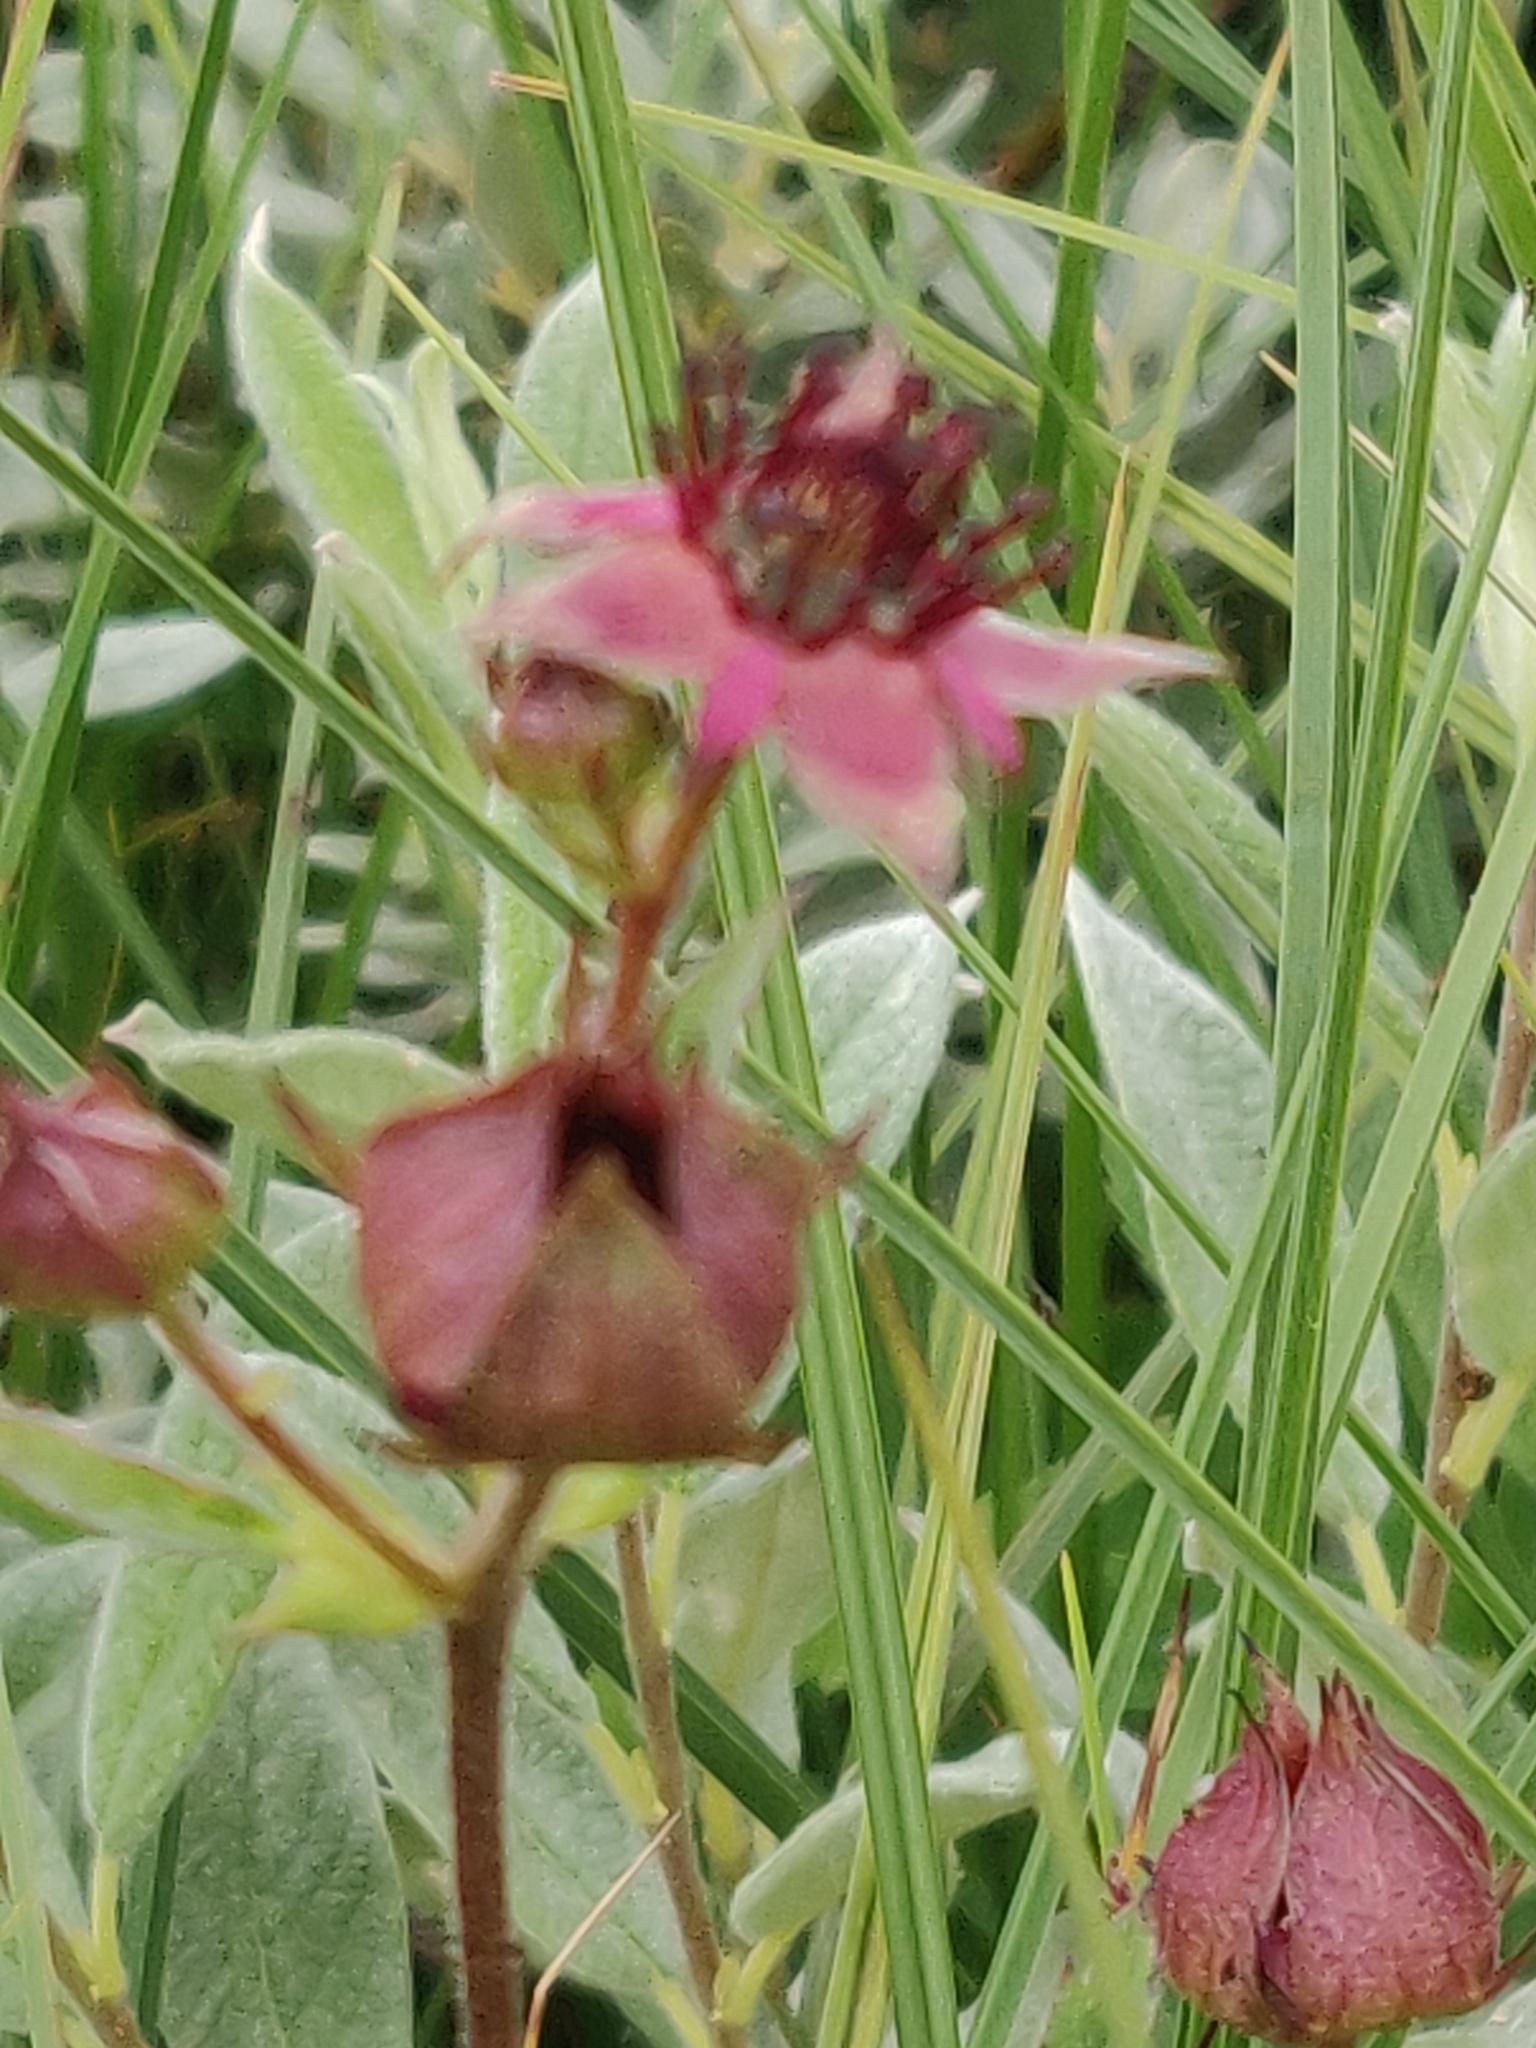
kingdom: Plantae
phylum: Tracheophyta
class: Magnoliopsida
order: Rosales
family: Rosaceae
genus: Comarum
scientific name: Comarum palustre
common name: Marsh cinquefoil
